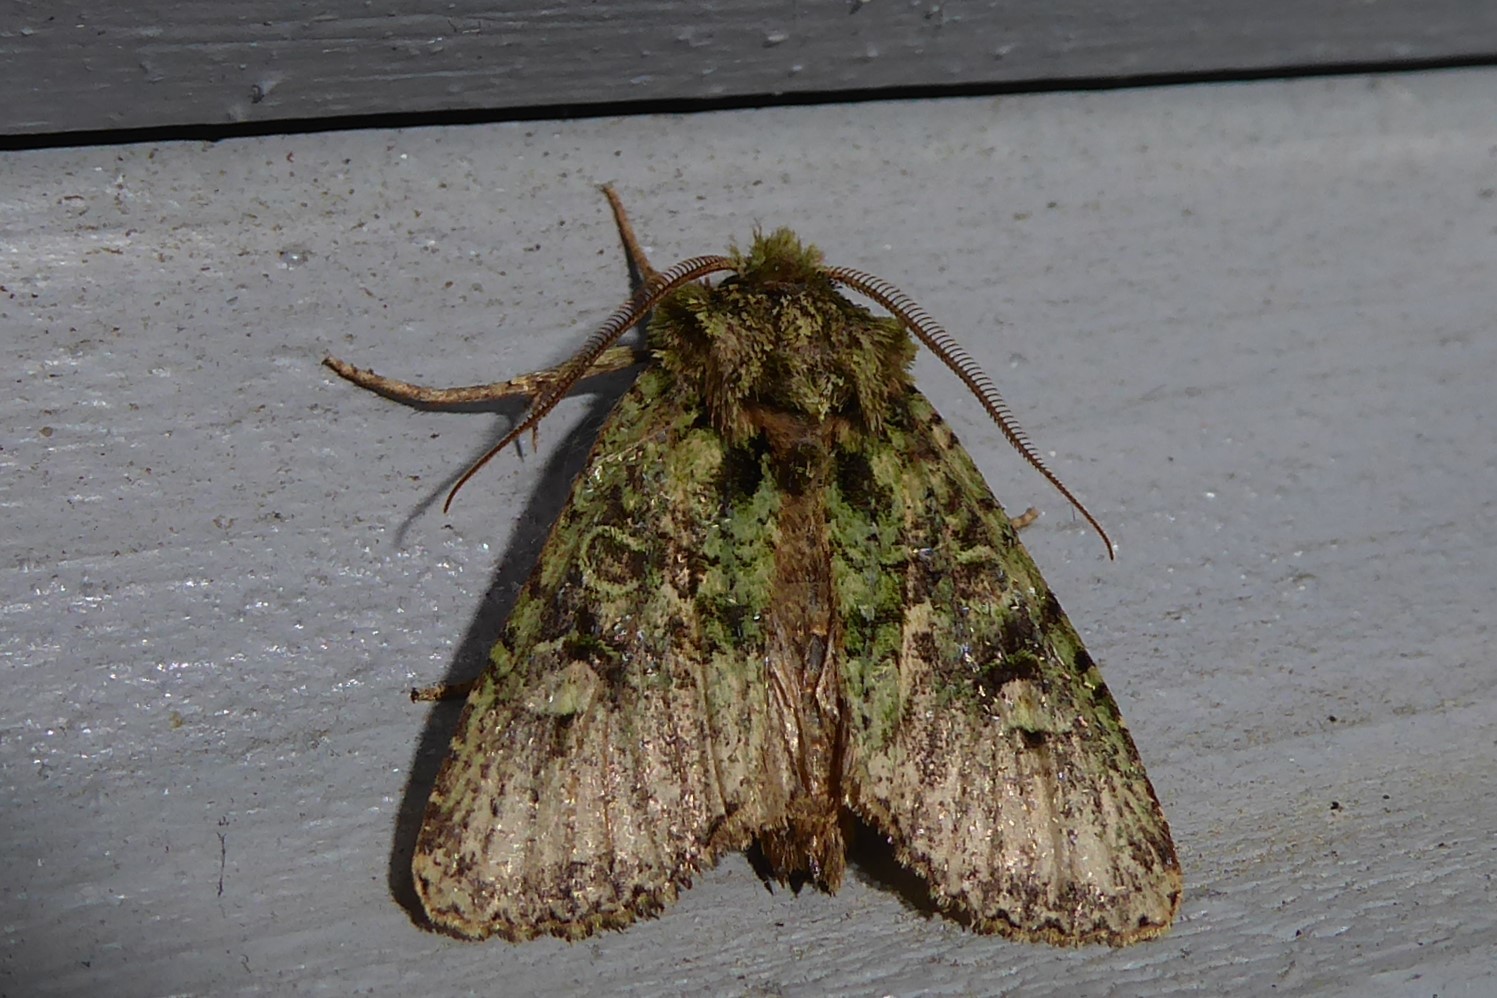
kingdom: Animalia
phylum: Arthropoda
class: Insecta
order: Lepidoptera
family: Noctuidae
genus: Ichneutica
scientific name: Ichneutica
